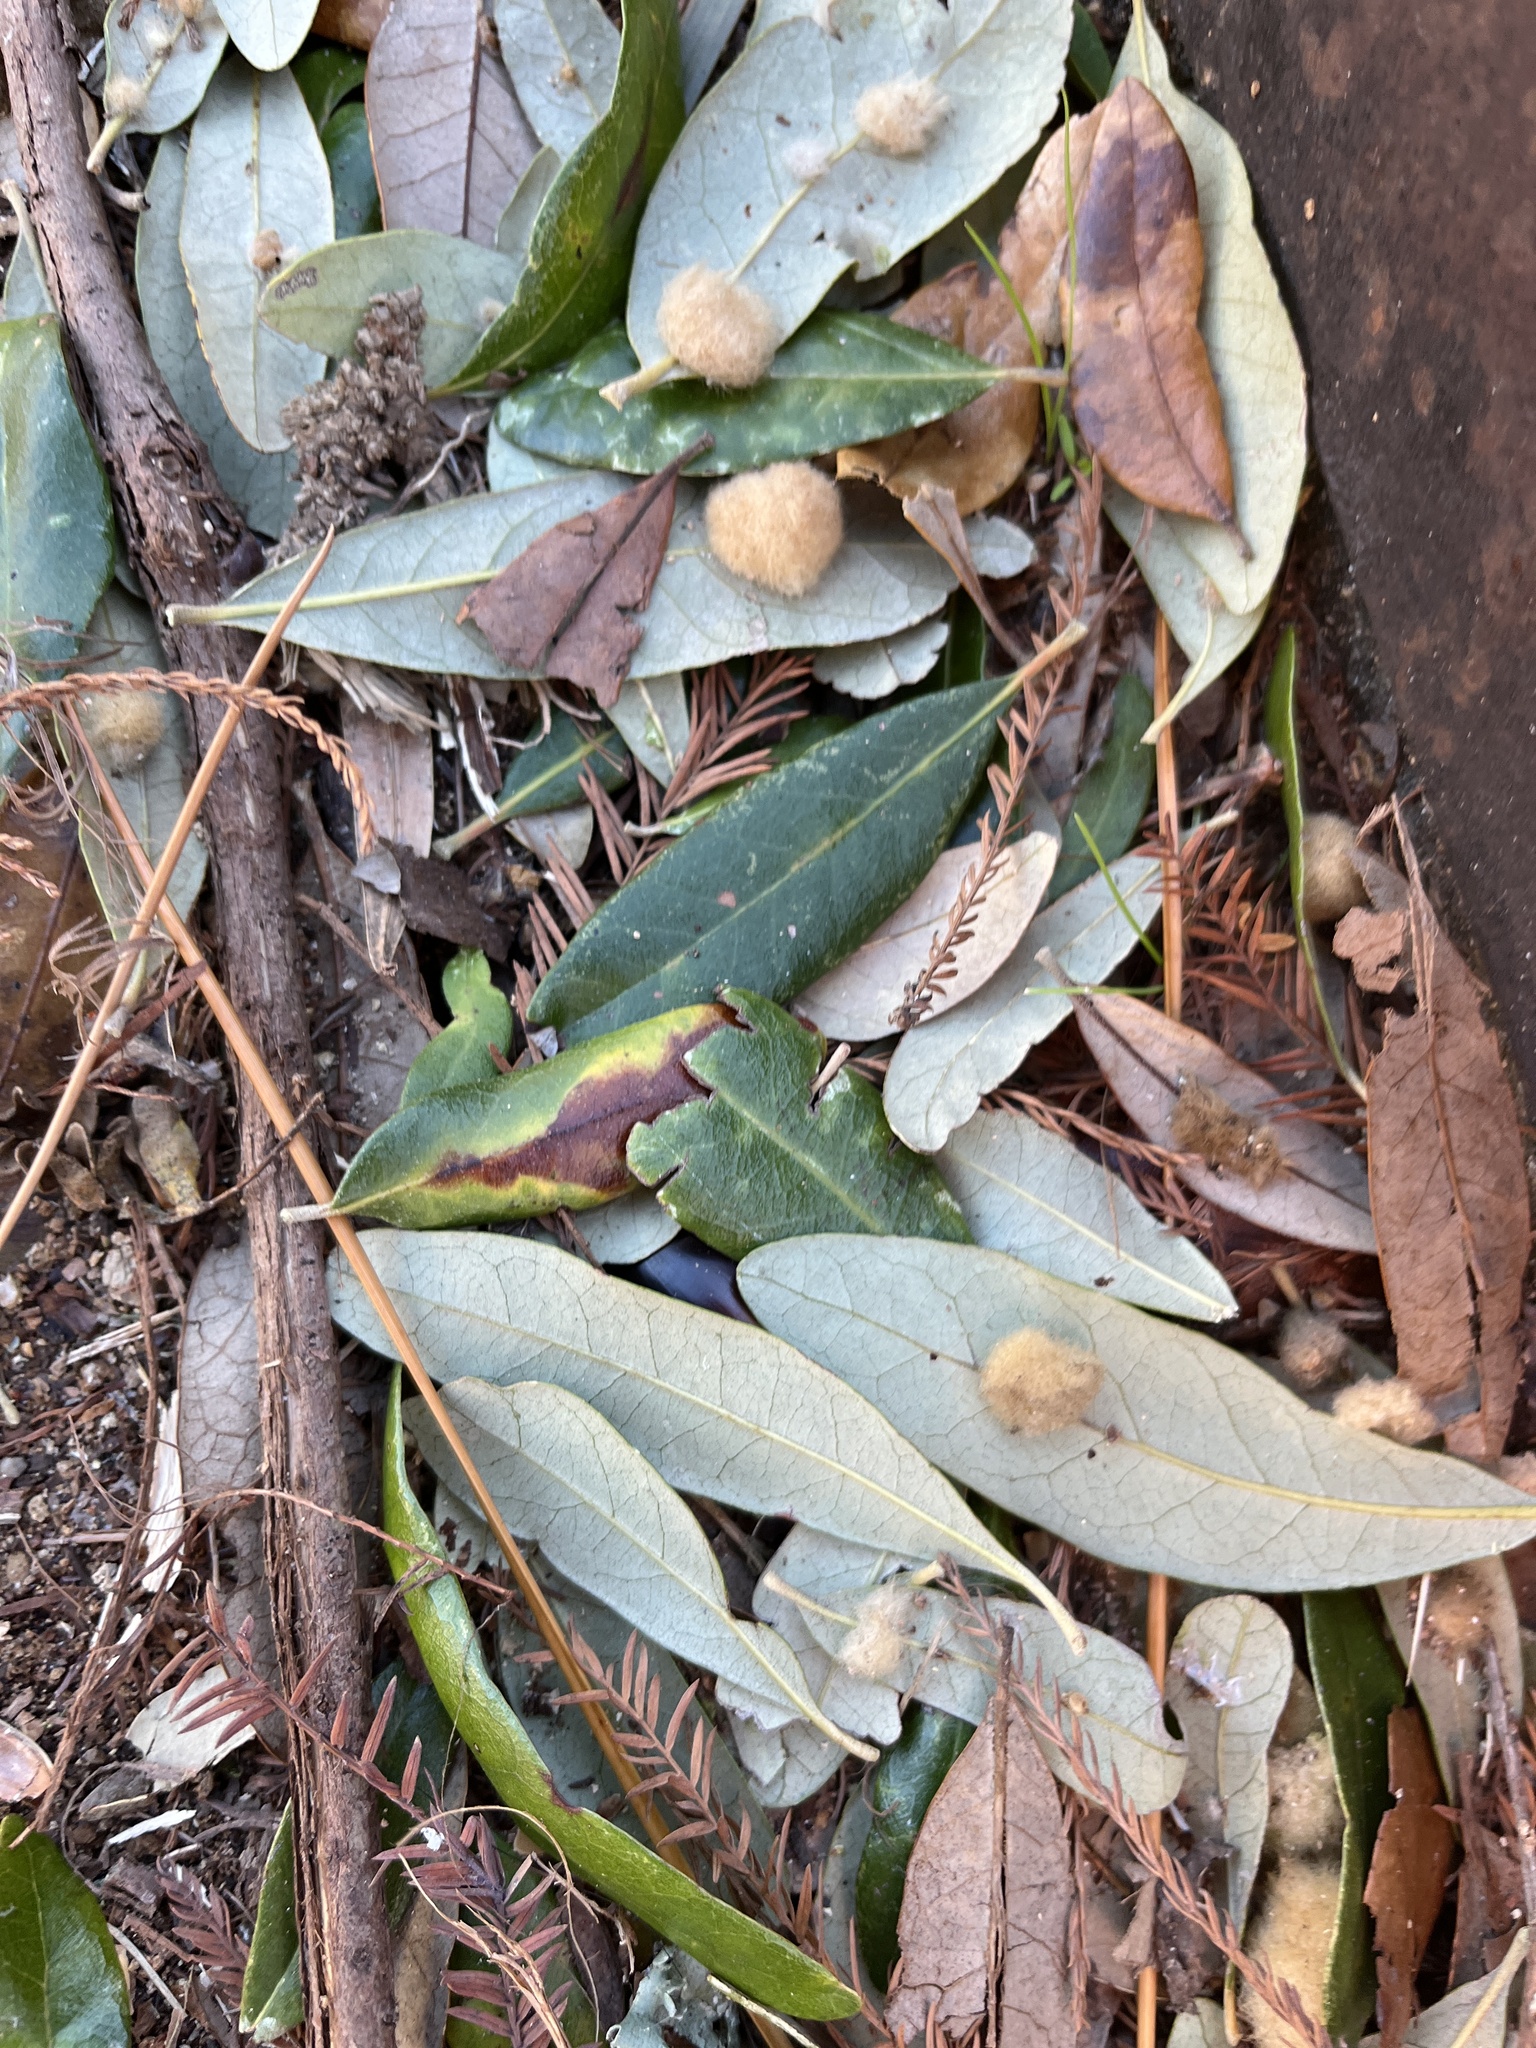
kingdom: Animalia
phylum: Arthropoda
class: Insecta
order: Hymenoptera
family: Cynipidae
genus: Andricus
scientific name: Andricus Druon quercuslanigerum
